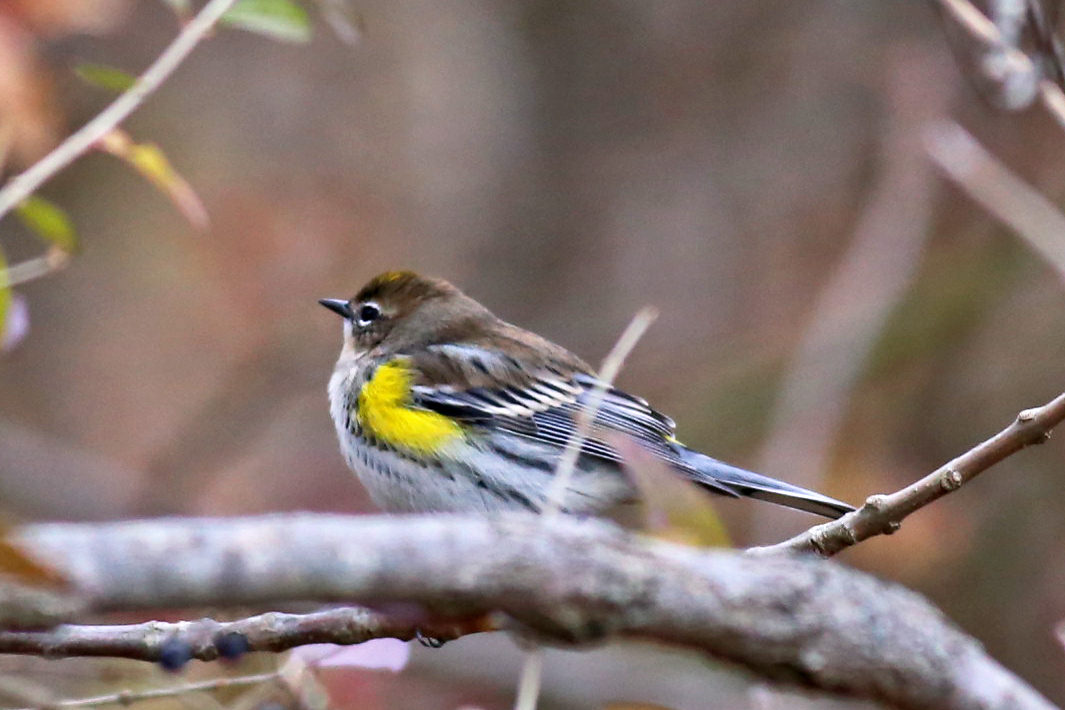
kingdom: Animalia
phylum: Chordata
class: Aves
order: Passeriformes
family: Parulidae
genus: Setophaga
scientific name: Setophaga coronata
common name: Myrtle warbler
